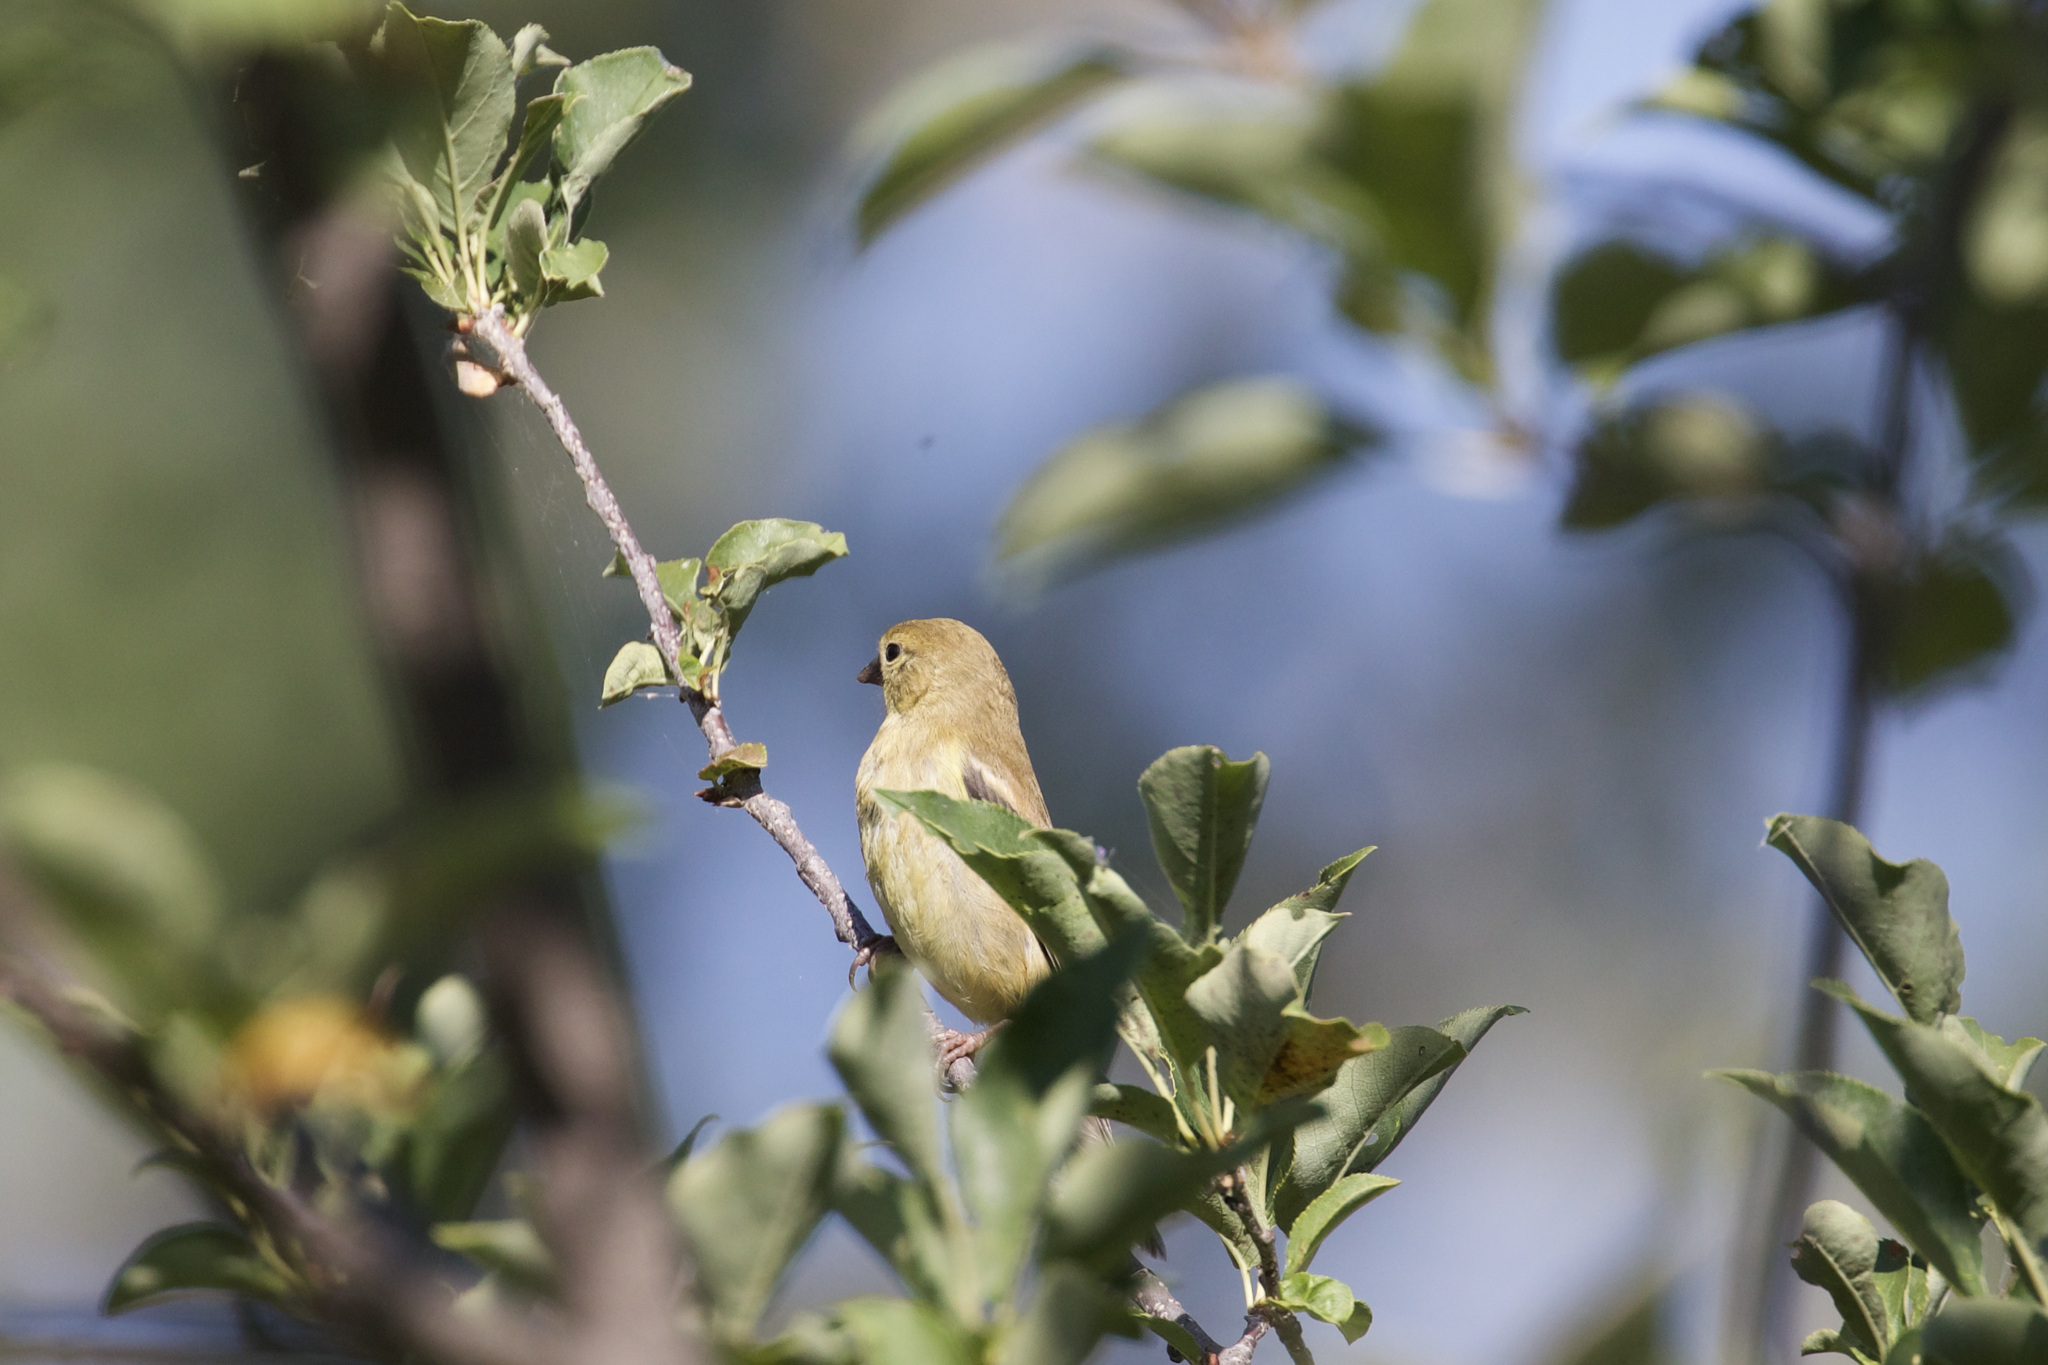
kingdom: Animalia
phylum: Chordata
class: Aves
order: Passeriformes
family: Fringillidae
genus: Spinus
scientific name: Spinus tristis
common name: American goldfinch
